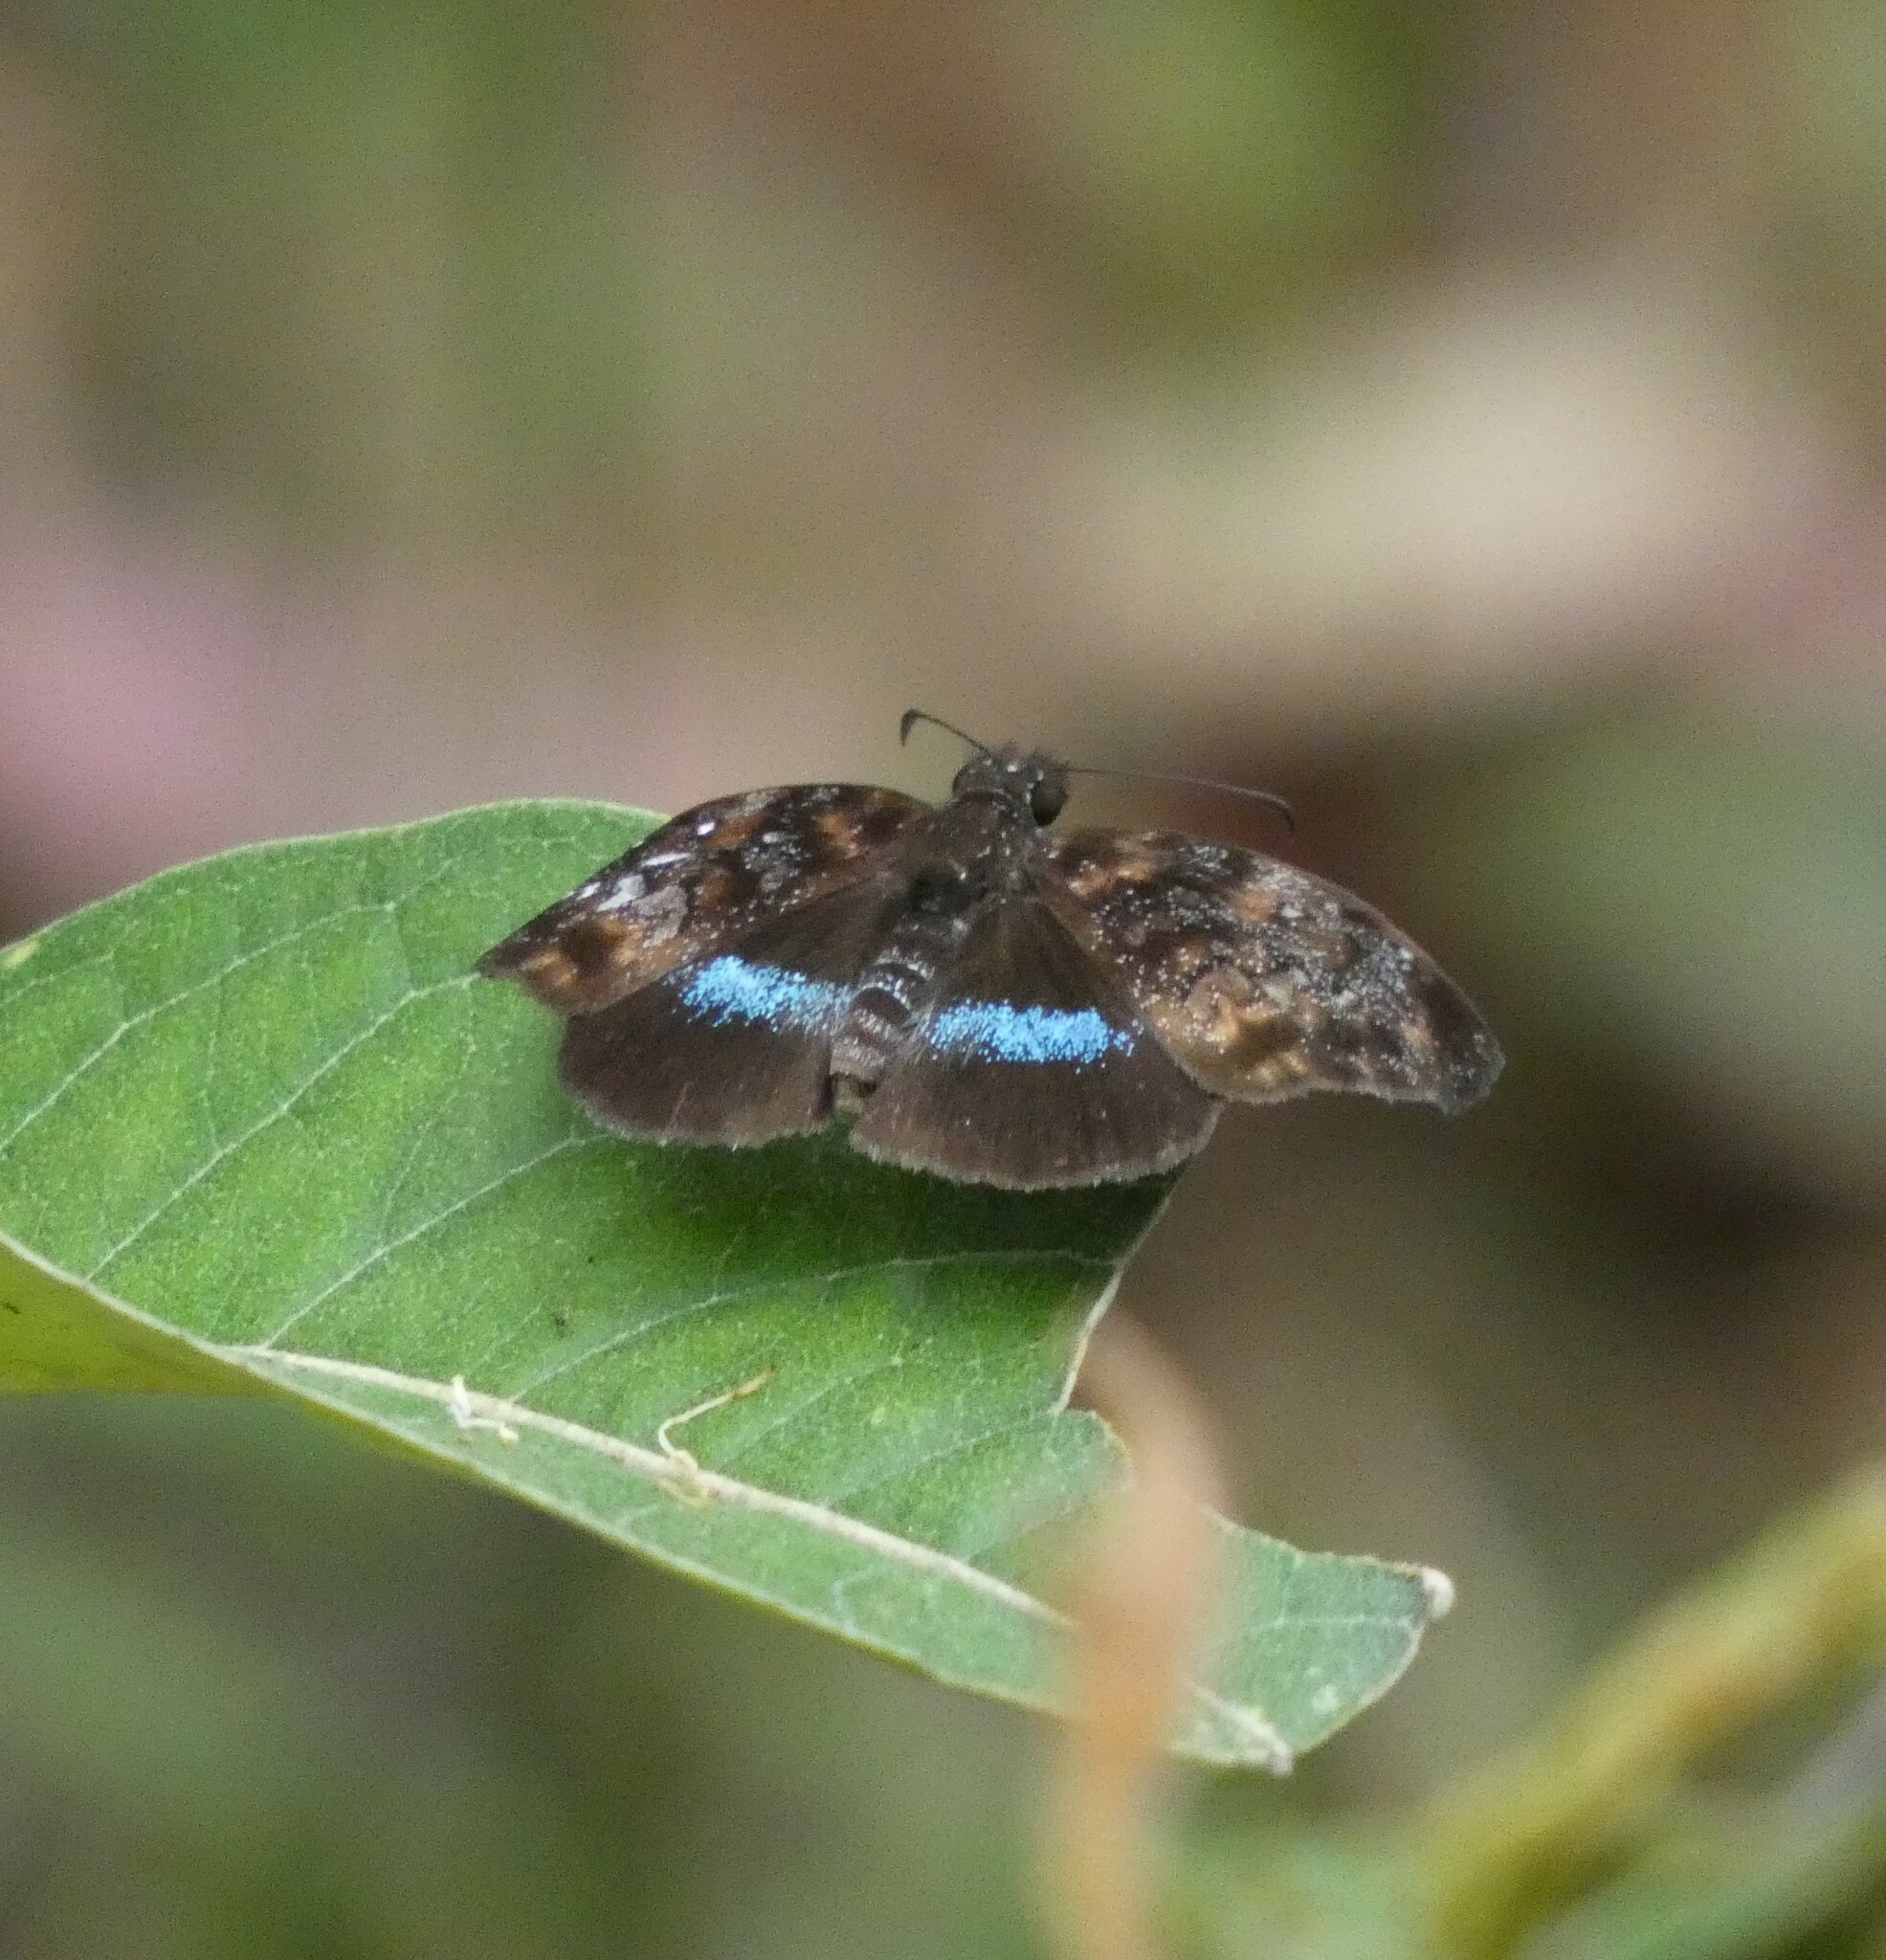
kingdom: Animalia
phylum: Arthropoda
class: Insecta
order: Lepidoptera
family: Hesperiidae
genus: Sostrata
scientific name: Sostrata
